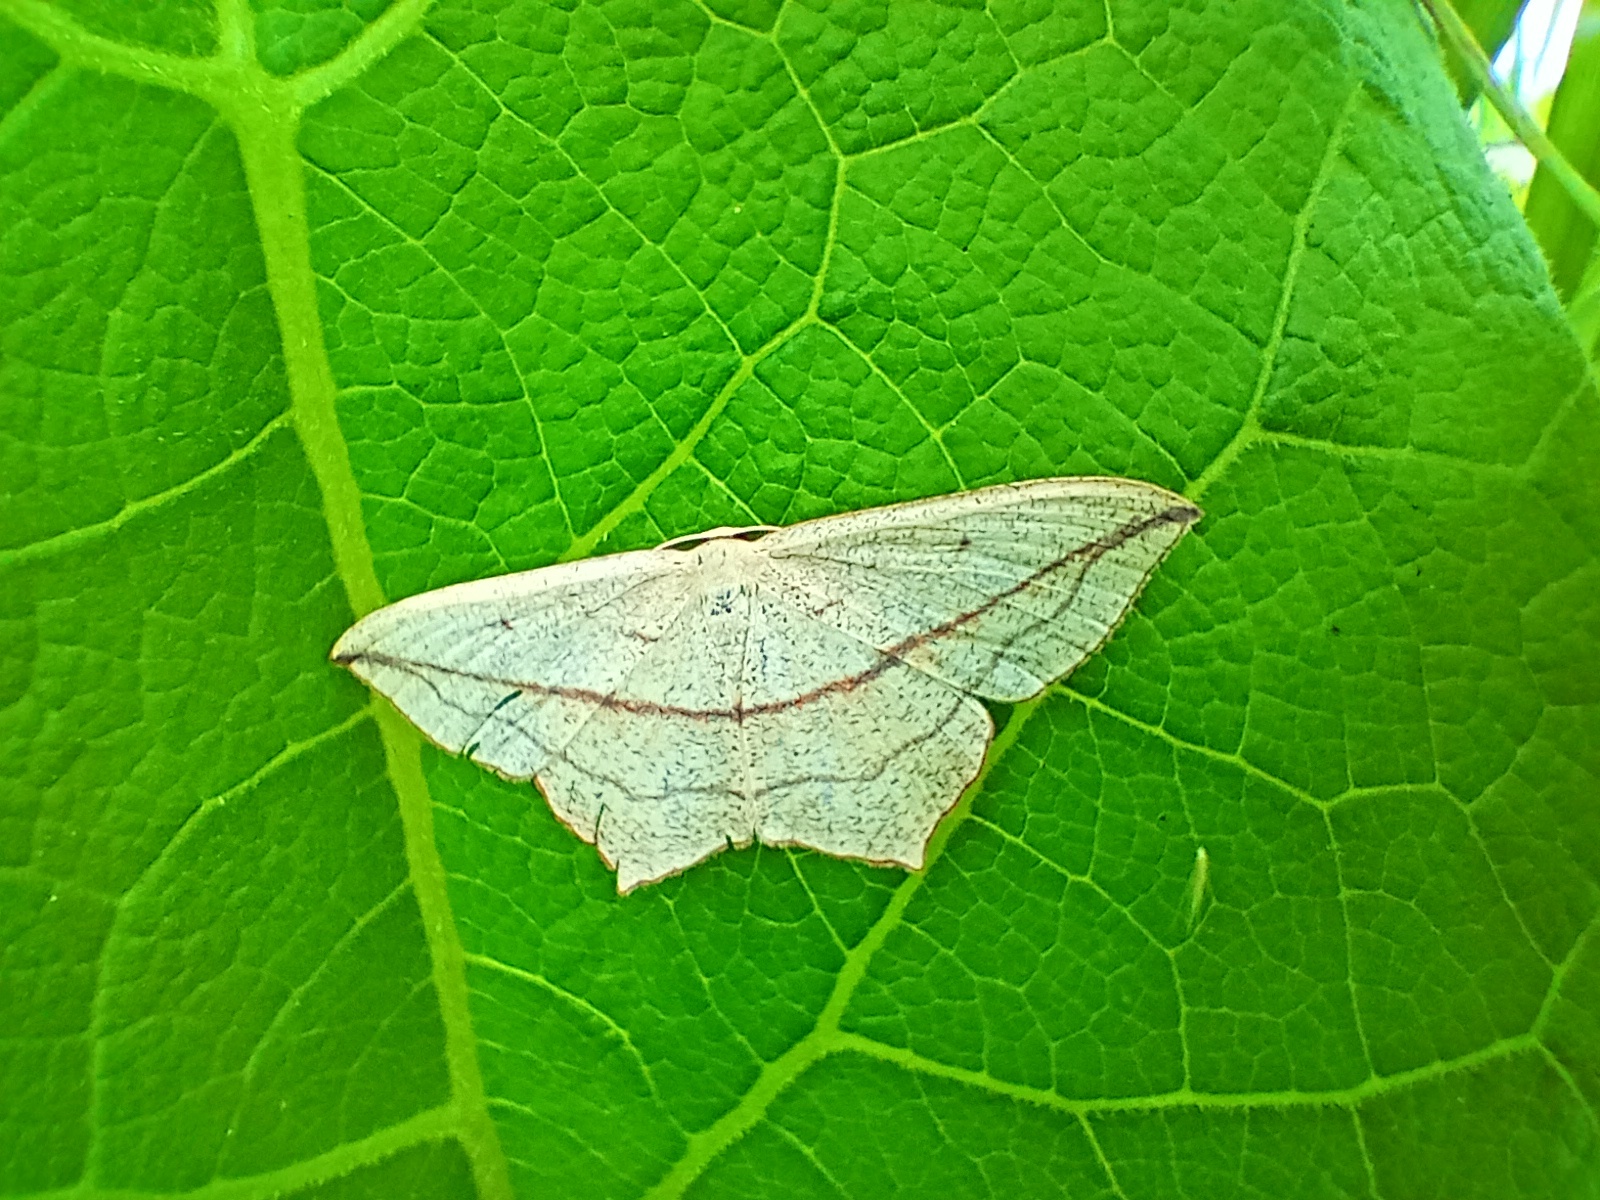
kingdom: Animalia
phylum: Arthropoda
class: Insecta
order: Lepidoptera
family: Geometridae
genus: Timandra
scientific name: Timandra comae
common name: Blood-vein
